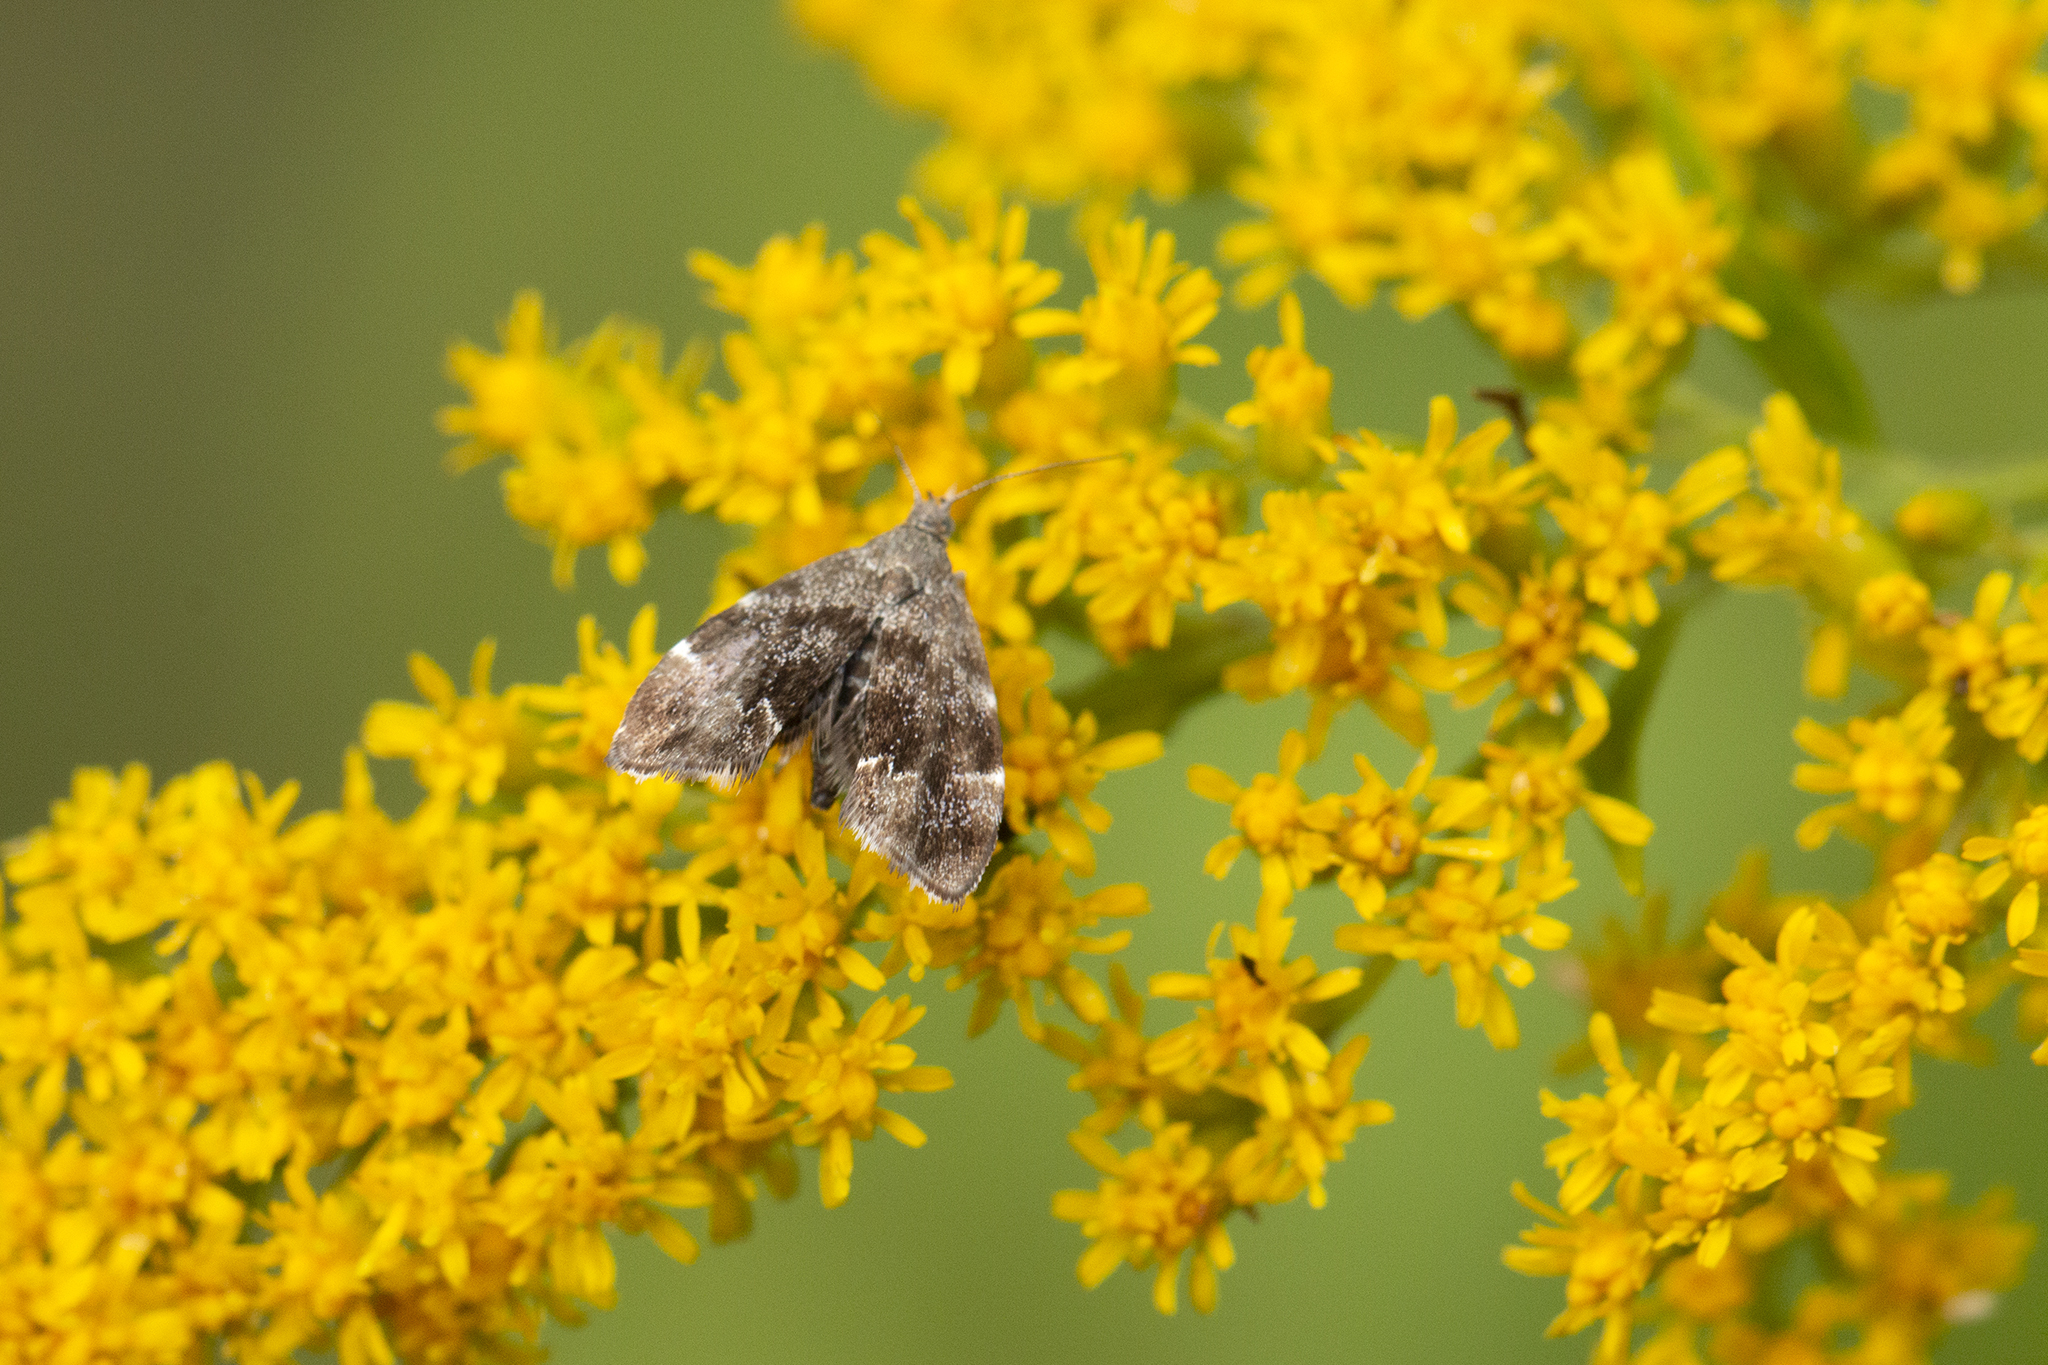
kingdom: Animalia
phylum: Arthropoda
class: Insecta
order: Lepidoptera
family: Choreutidae
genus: Anthophila
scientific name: Anthophila fabriciana
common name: Nettle-tap
